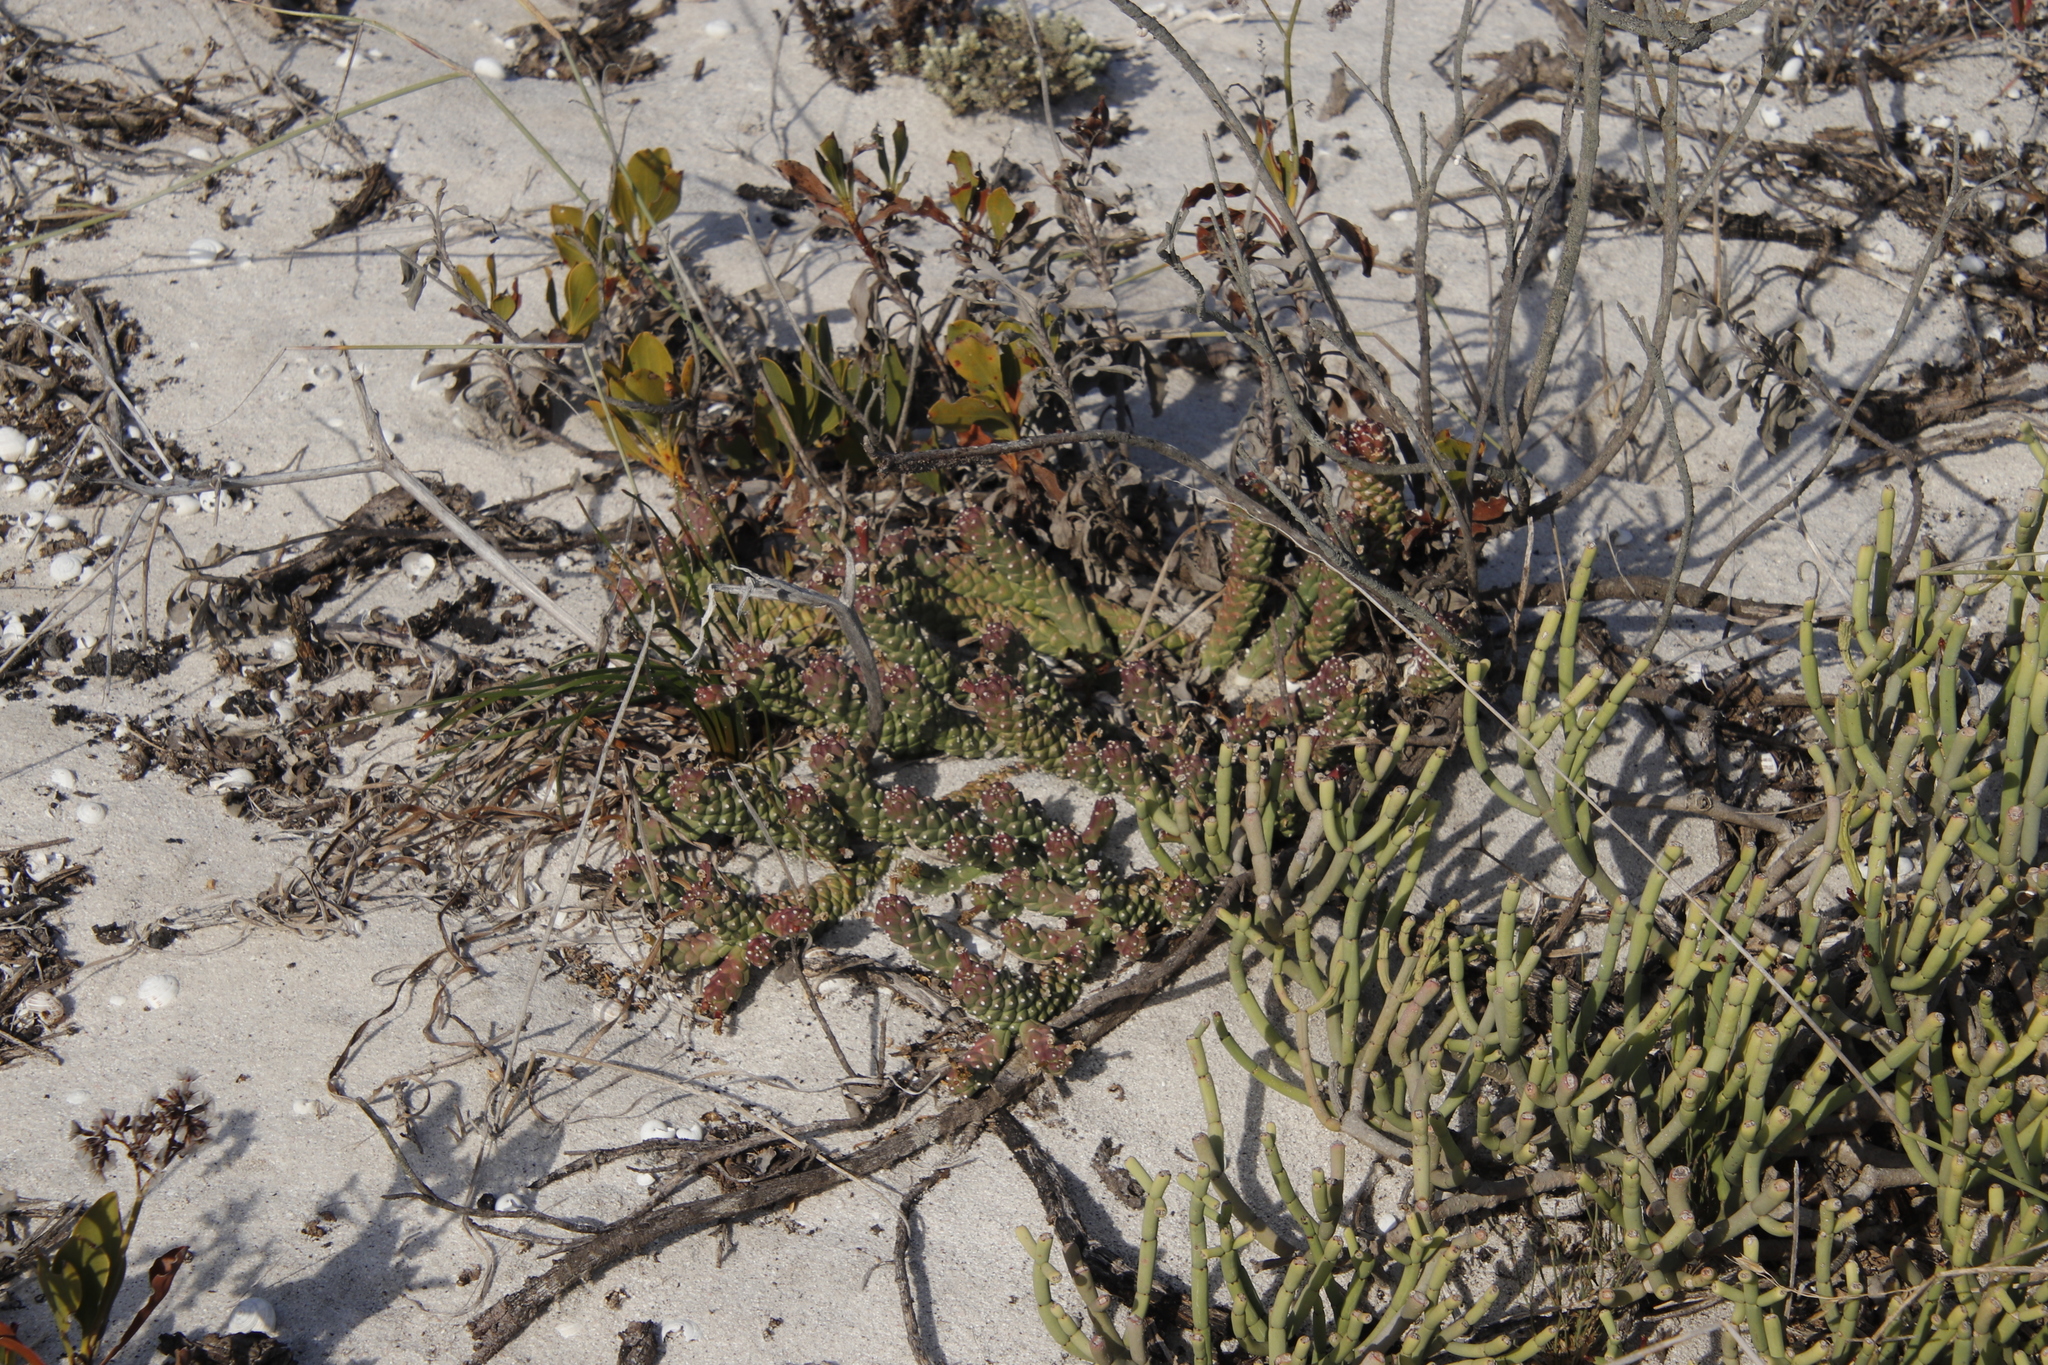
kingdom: Plantae
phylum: Tracheophyta
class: Magnoliopsida
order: Malpighiales
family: Euphorbiaceae
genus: Euphorbia
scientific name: Euphorbia caput-medusae
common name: Medusa's-head
